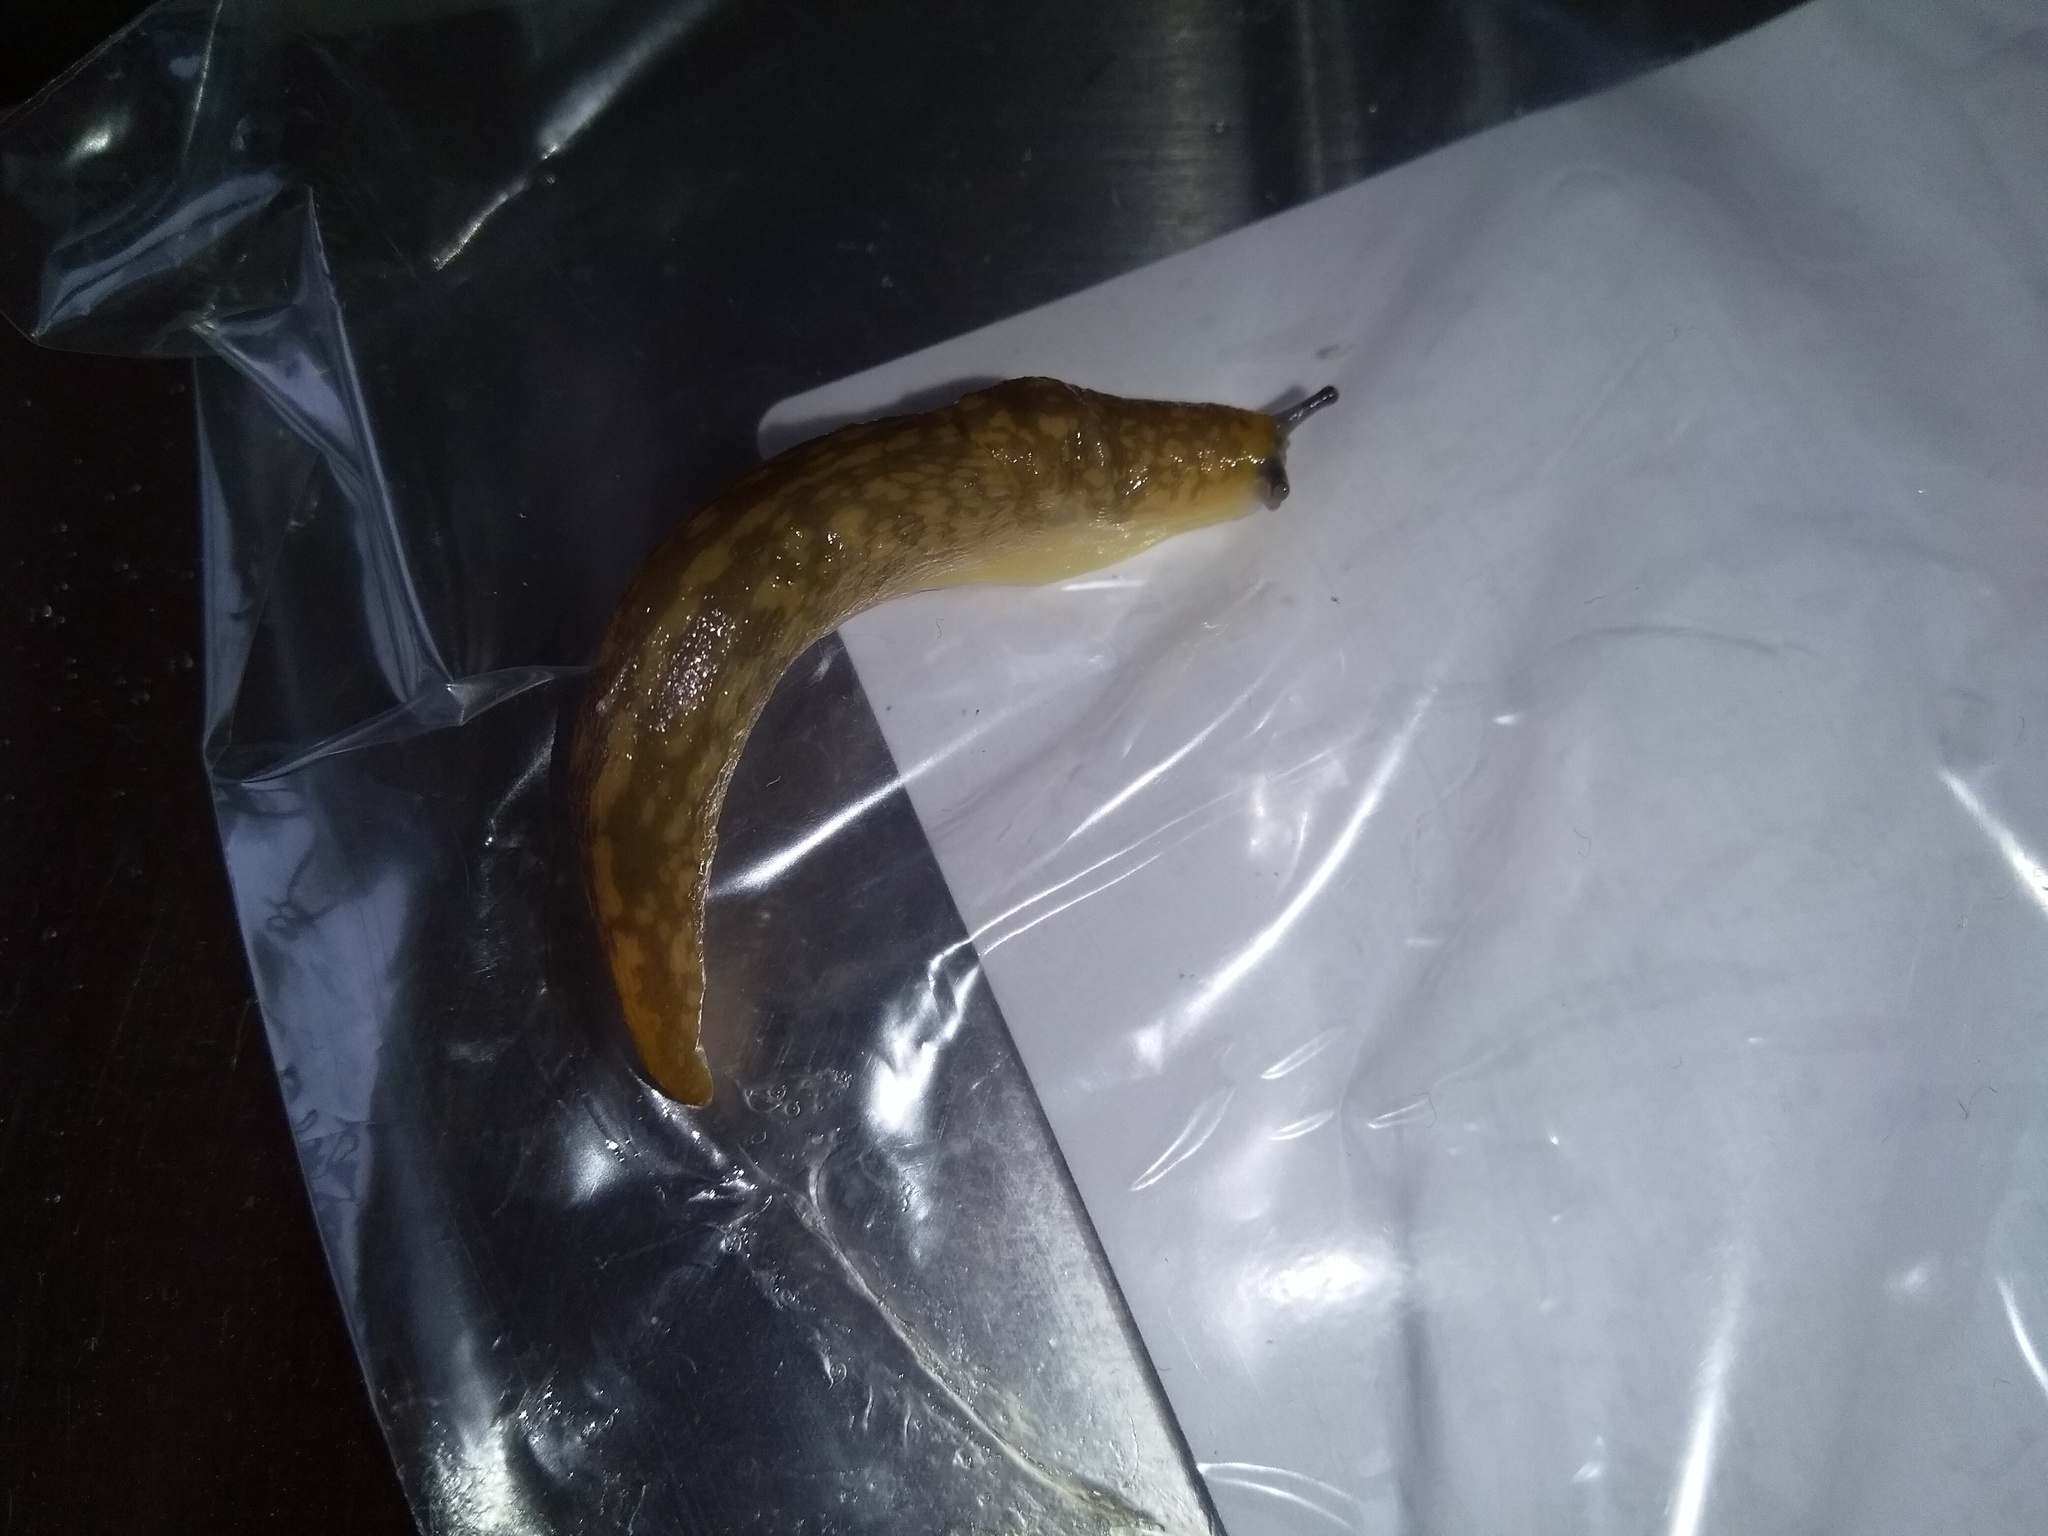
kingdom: Animalia
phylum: Mollusca
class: Gastropoda
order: Stylommatophora
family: Limacidae
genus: Limacus
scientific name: Limacus flavus
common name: Yellow gardenslug
